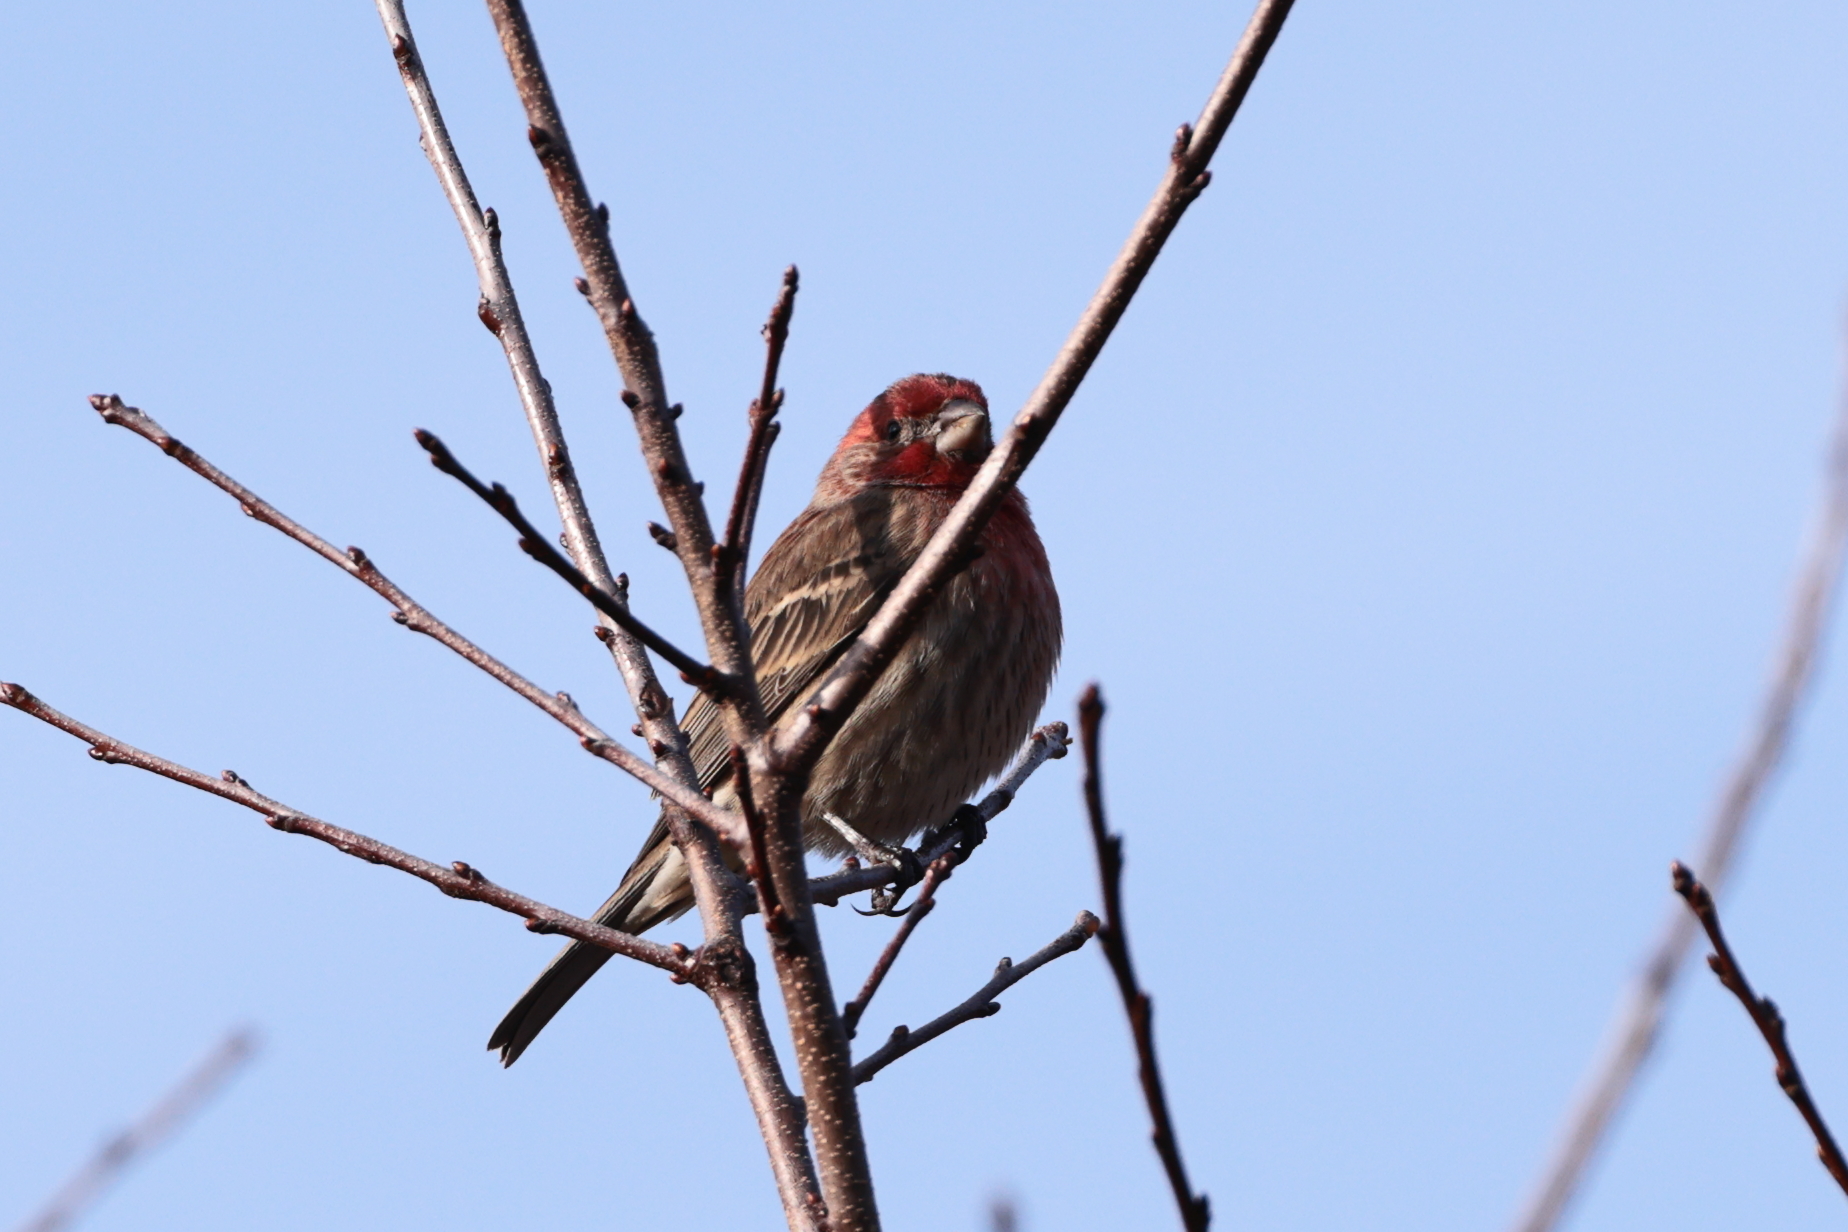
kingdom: Animalia
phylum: Chordata
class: Aves
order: Passeriformes
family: Fringillidae
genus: Haemorhous
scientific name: Haemorhous mexicanus
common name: House finch
